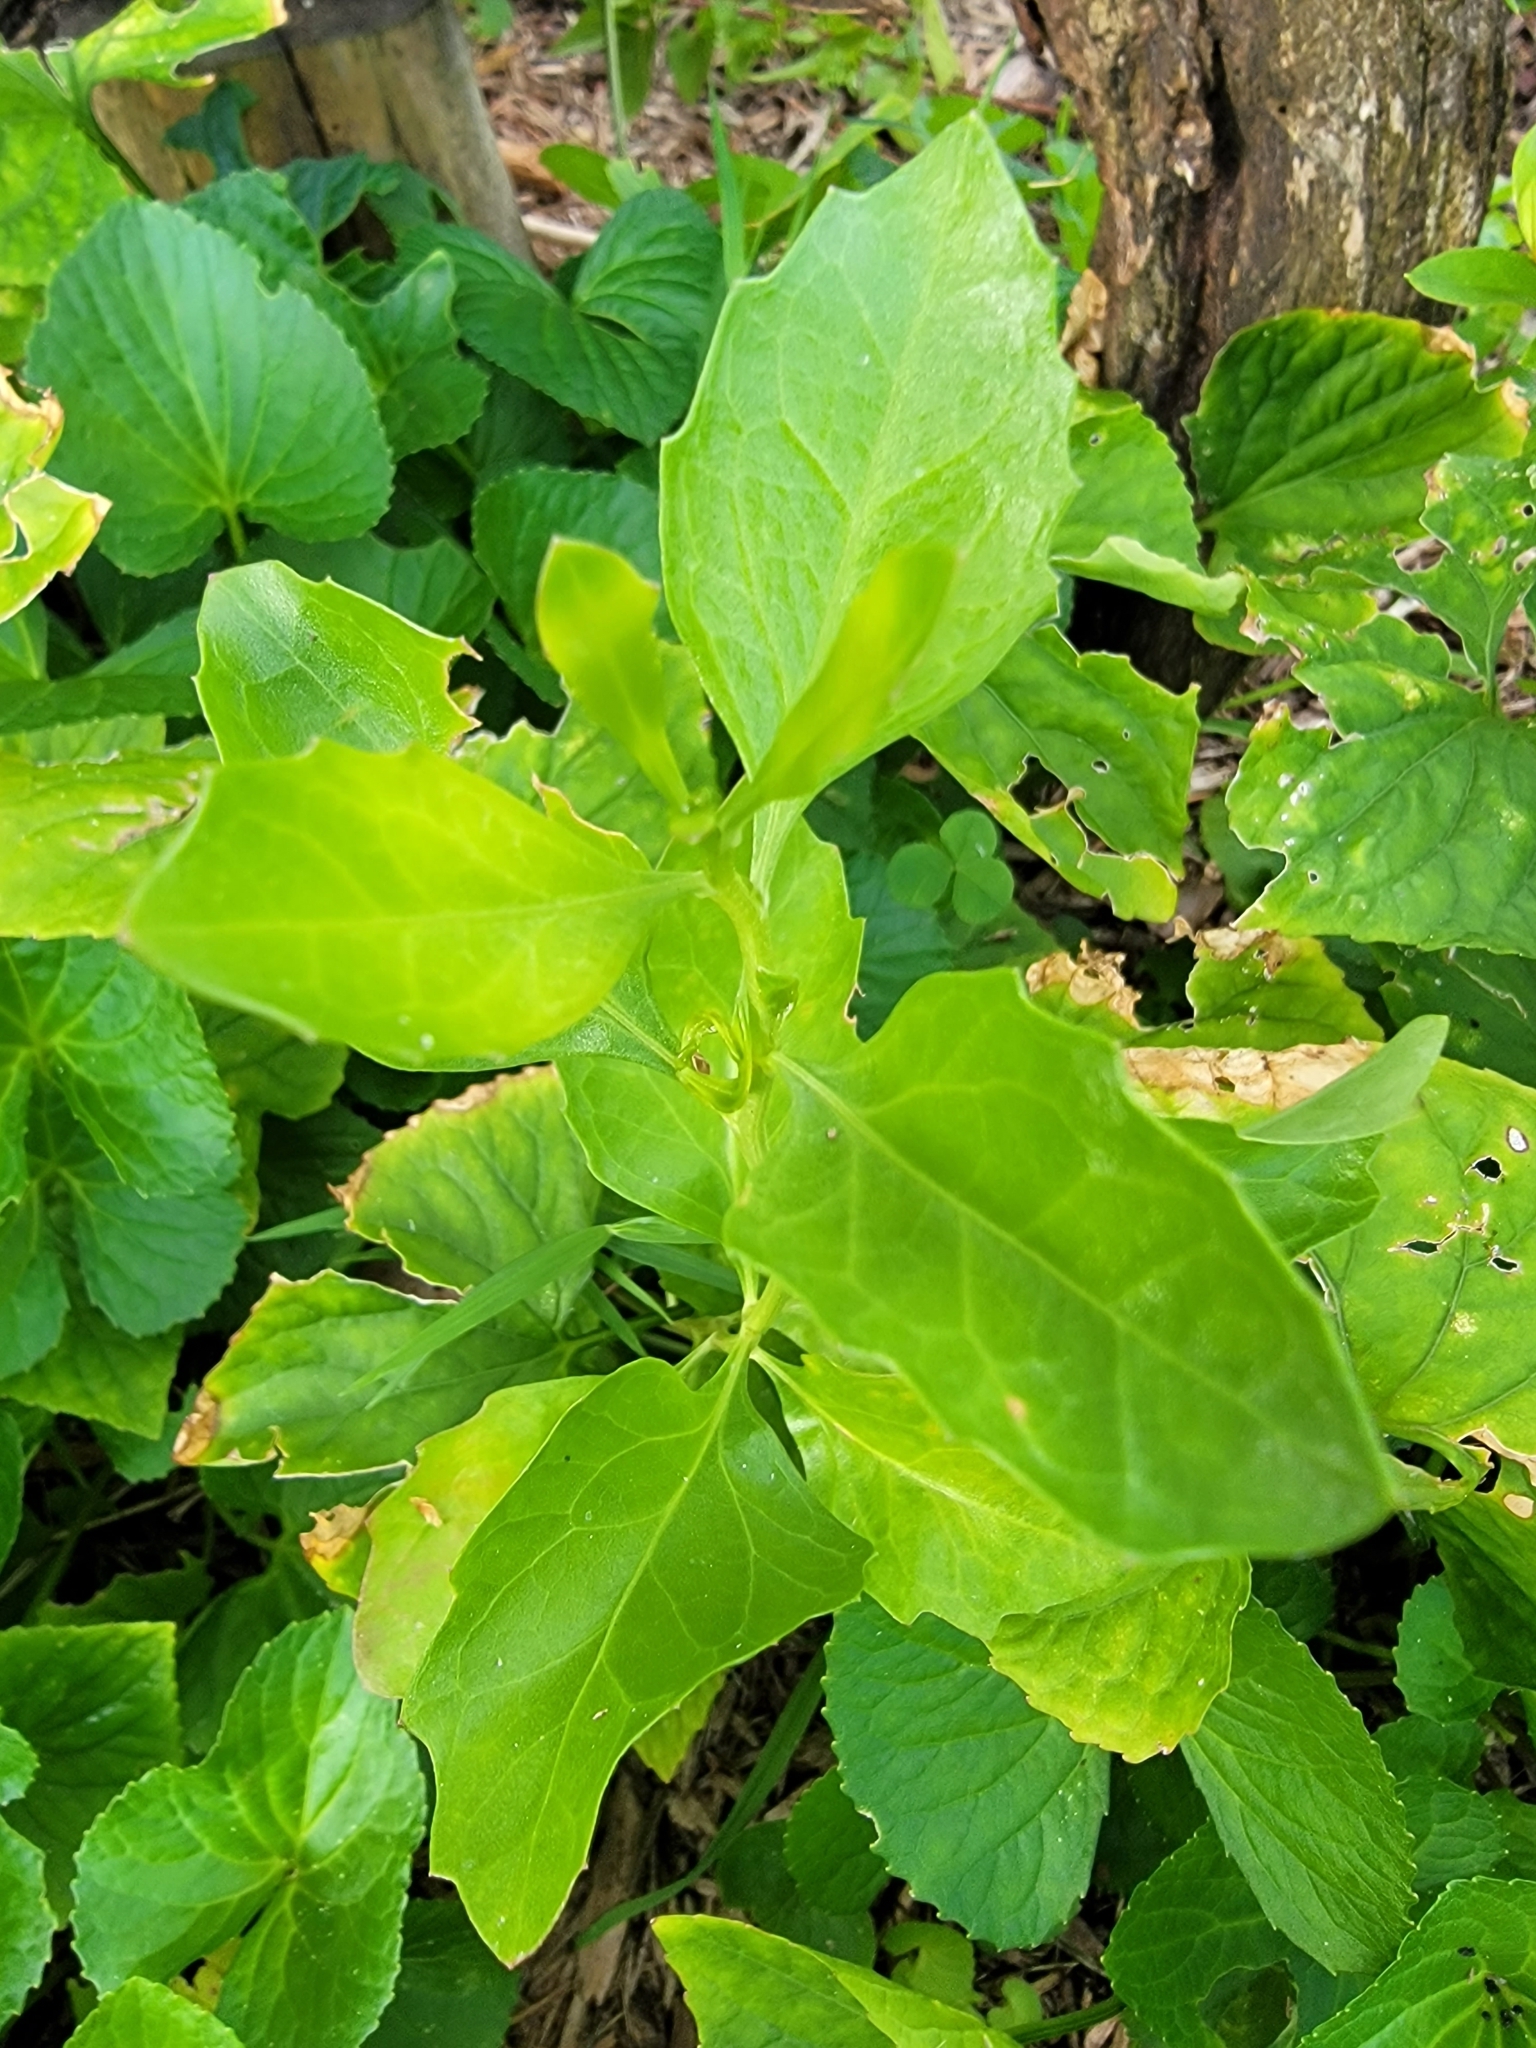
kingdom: Plantae
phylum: Tracheophyta
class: Magnoliopsida
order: Asterales
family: Asteraceae
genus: Iva
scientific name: Iva frutescens
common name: Big-leaved marsh-elder
